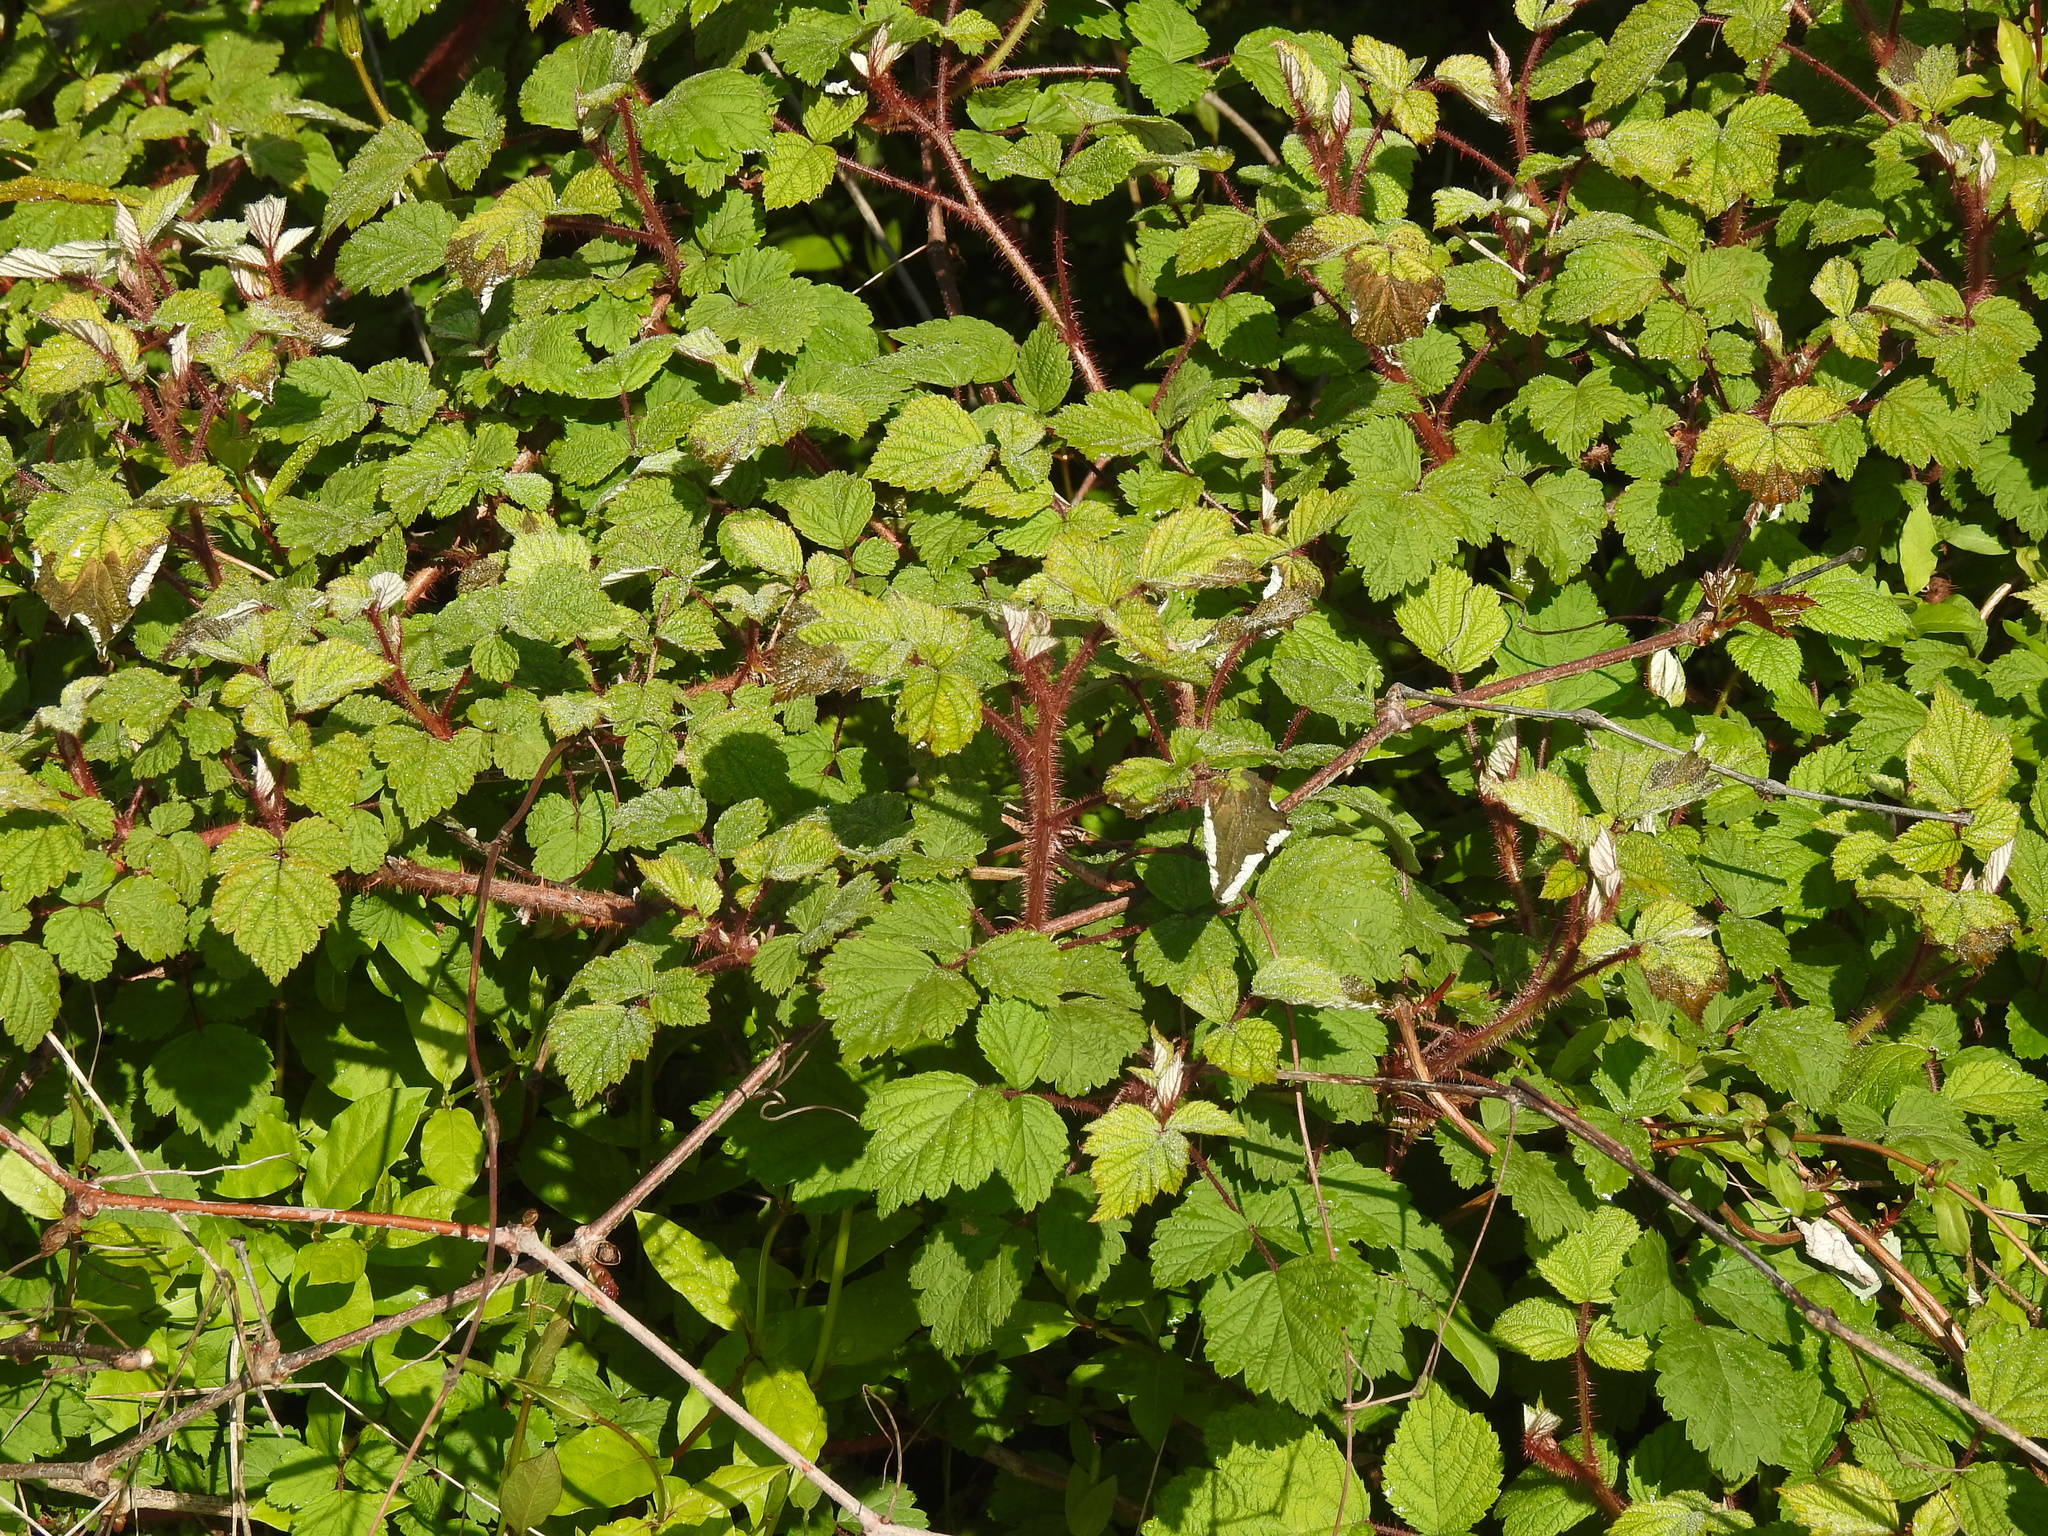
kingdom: Plantae
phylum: Tracheophyta
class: Magnoliopsida
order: Rosales
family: Rosaceae
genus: Rubus
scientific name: Rubus phoenicolasius
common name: Japanese wineberry
